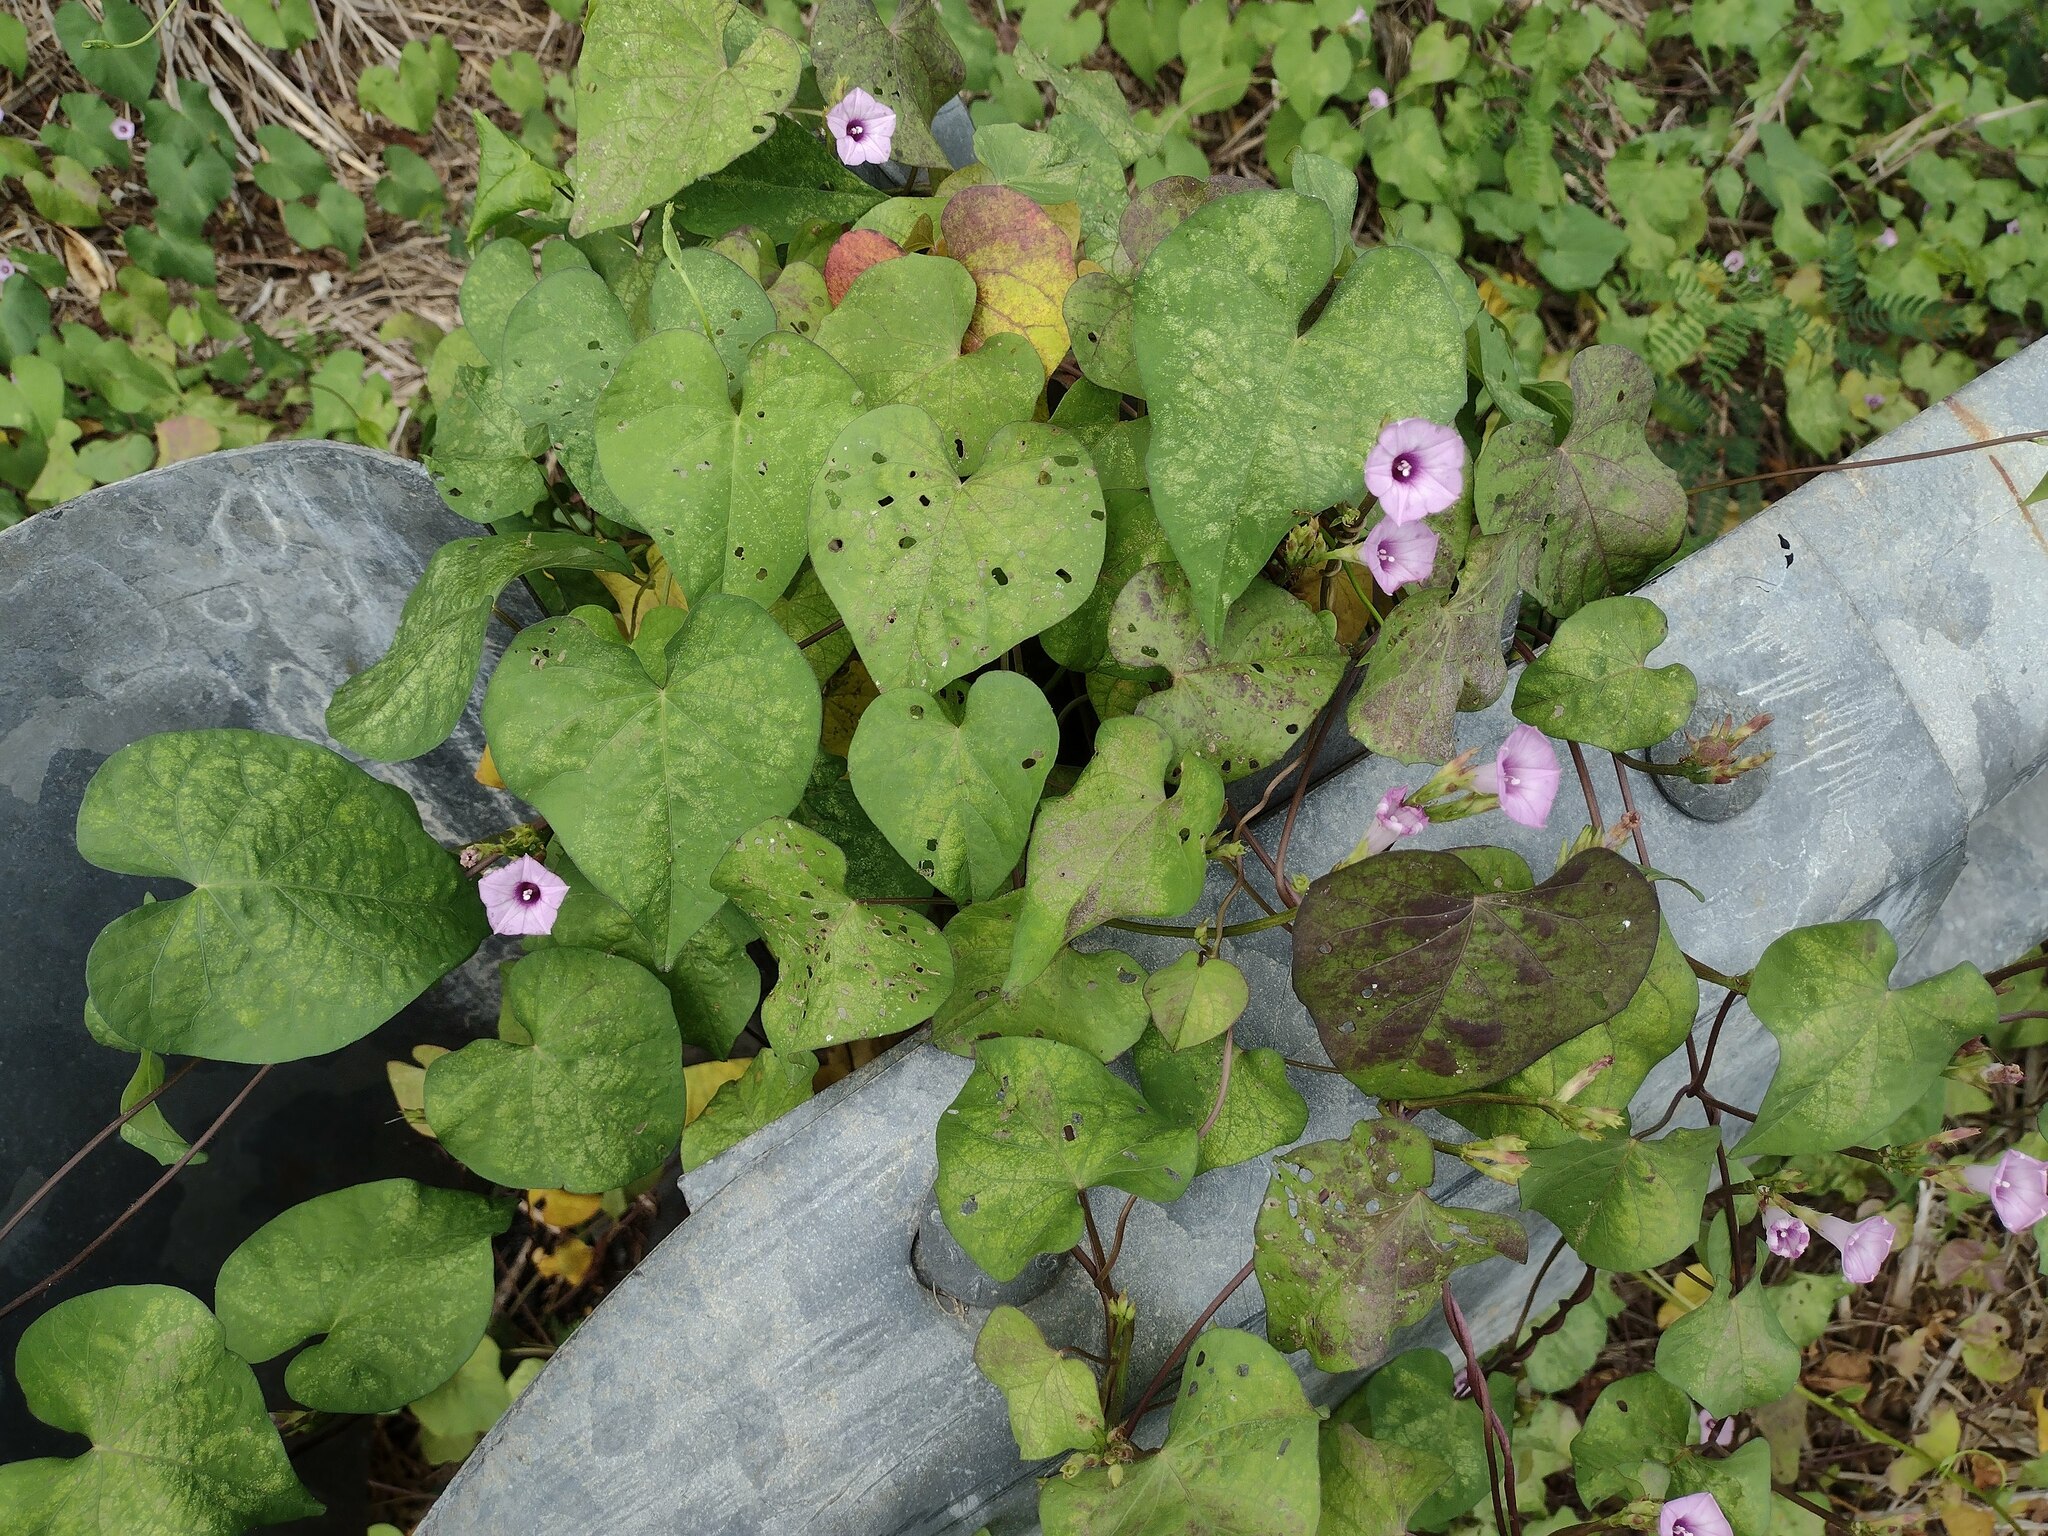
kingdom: Plantae
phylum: Tracheophyta
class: Magnoliopsida
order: Solanales
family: Convolvulaceae
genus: Ipomoea
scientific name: Ipomoea triloba
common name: Little-bell
